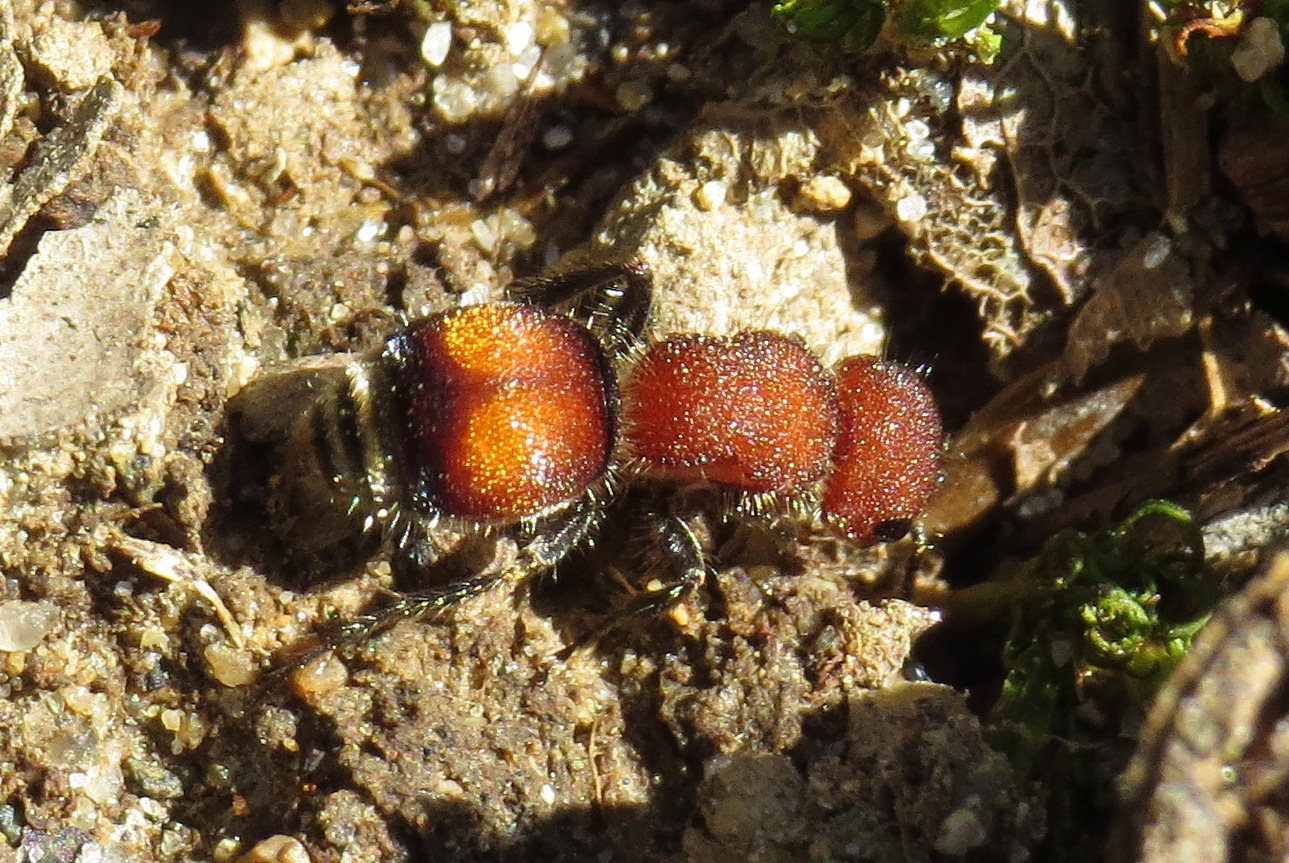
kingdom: Animalia
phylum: Arthropoda
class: Insecta
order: Hymenoptera
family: Mutillidae
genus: Pseudomethoca
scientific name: Pseudomethoca
